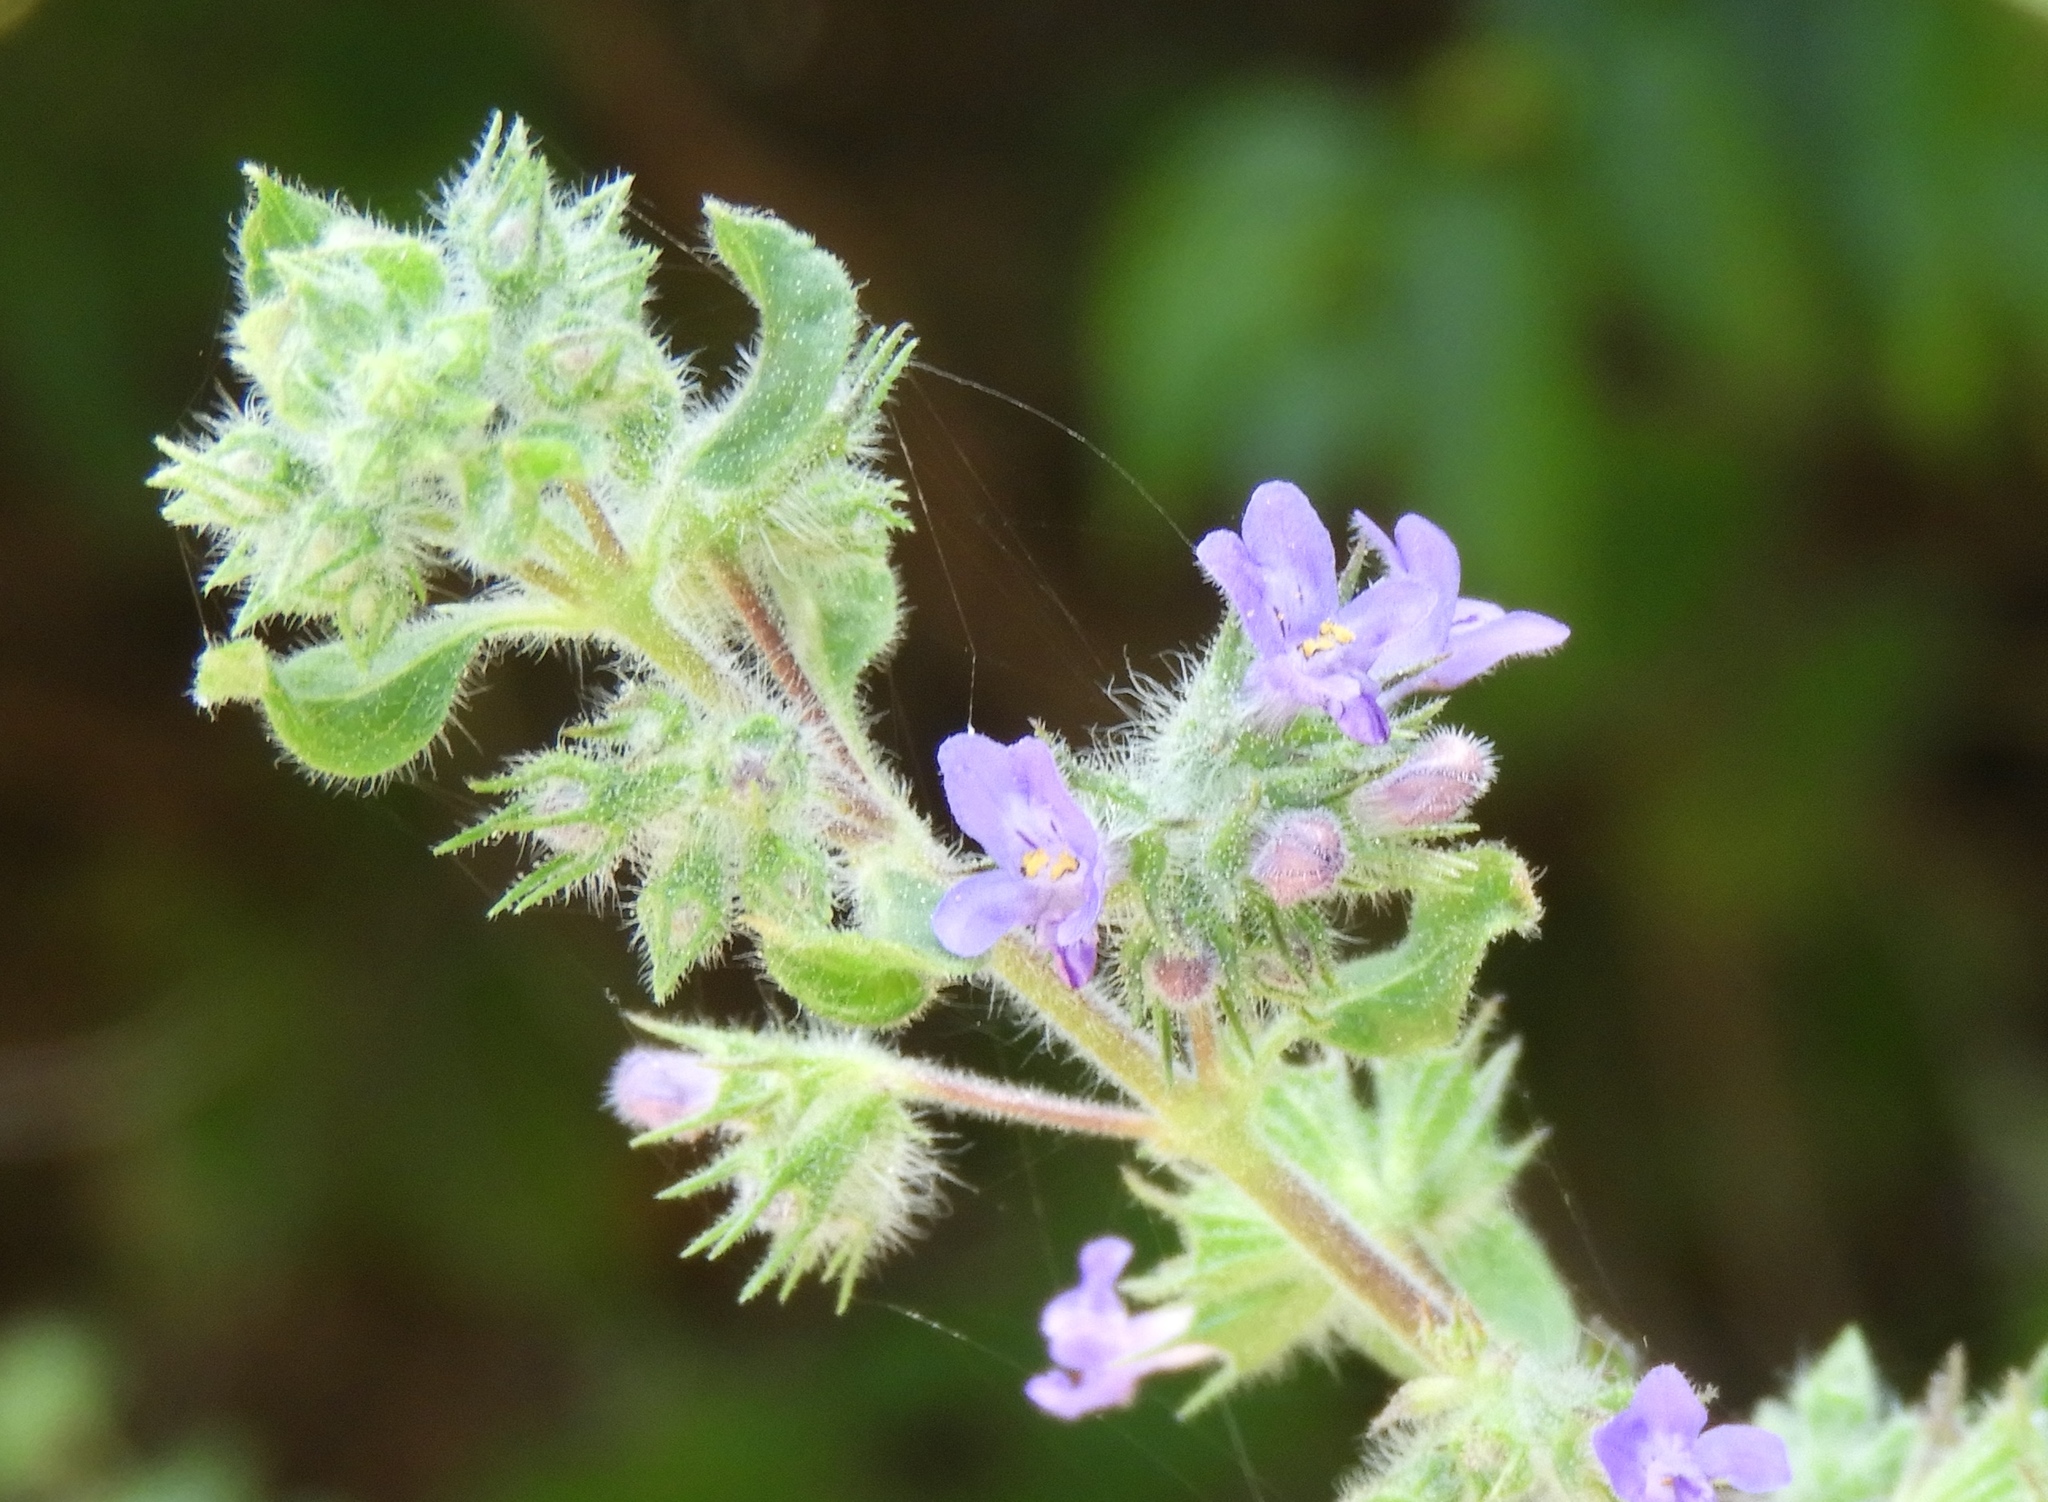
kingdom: Plantae
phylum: Tracheophyta
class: Magnoliopsida
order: Lamiales
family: Lamiaceae
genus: Mesosphaerum
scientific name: Mesosphaerum suaveolens
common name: Pignut
